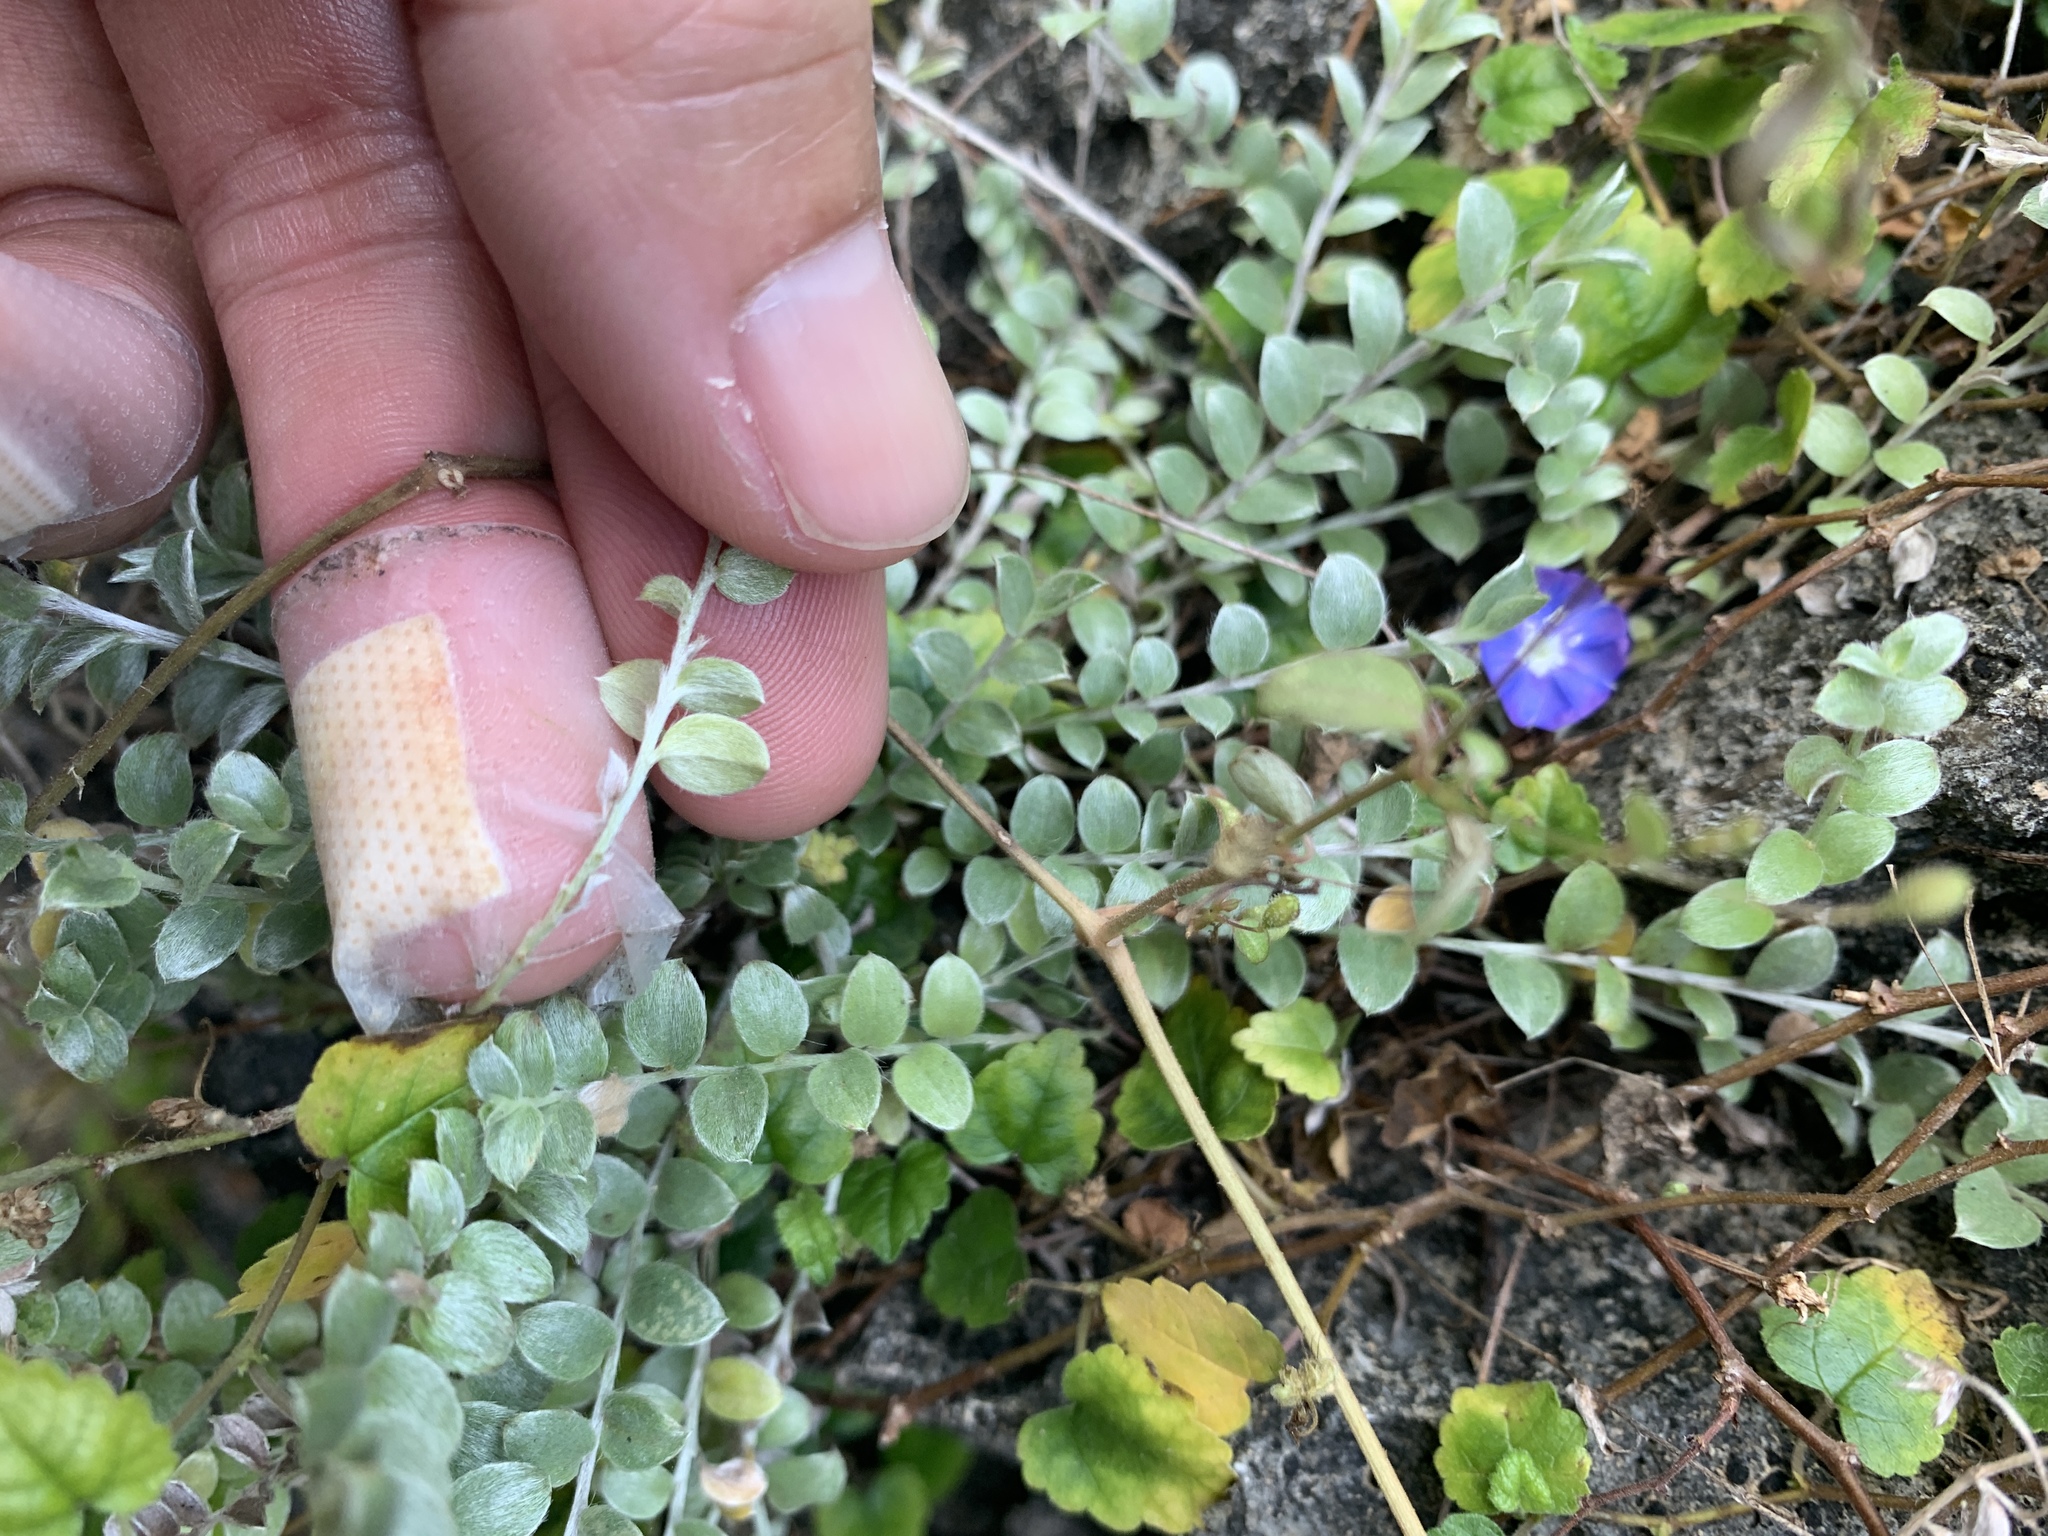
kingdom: Plantae
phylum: Tracheophyta
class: Magnoliopsida
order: Solanales
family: Convolvulaceae
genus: Evolvulus
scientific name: Evolvulus alsinoides
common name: Slender dwarf morning-glory
